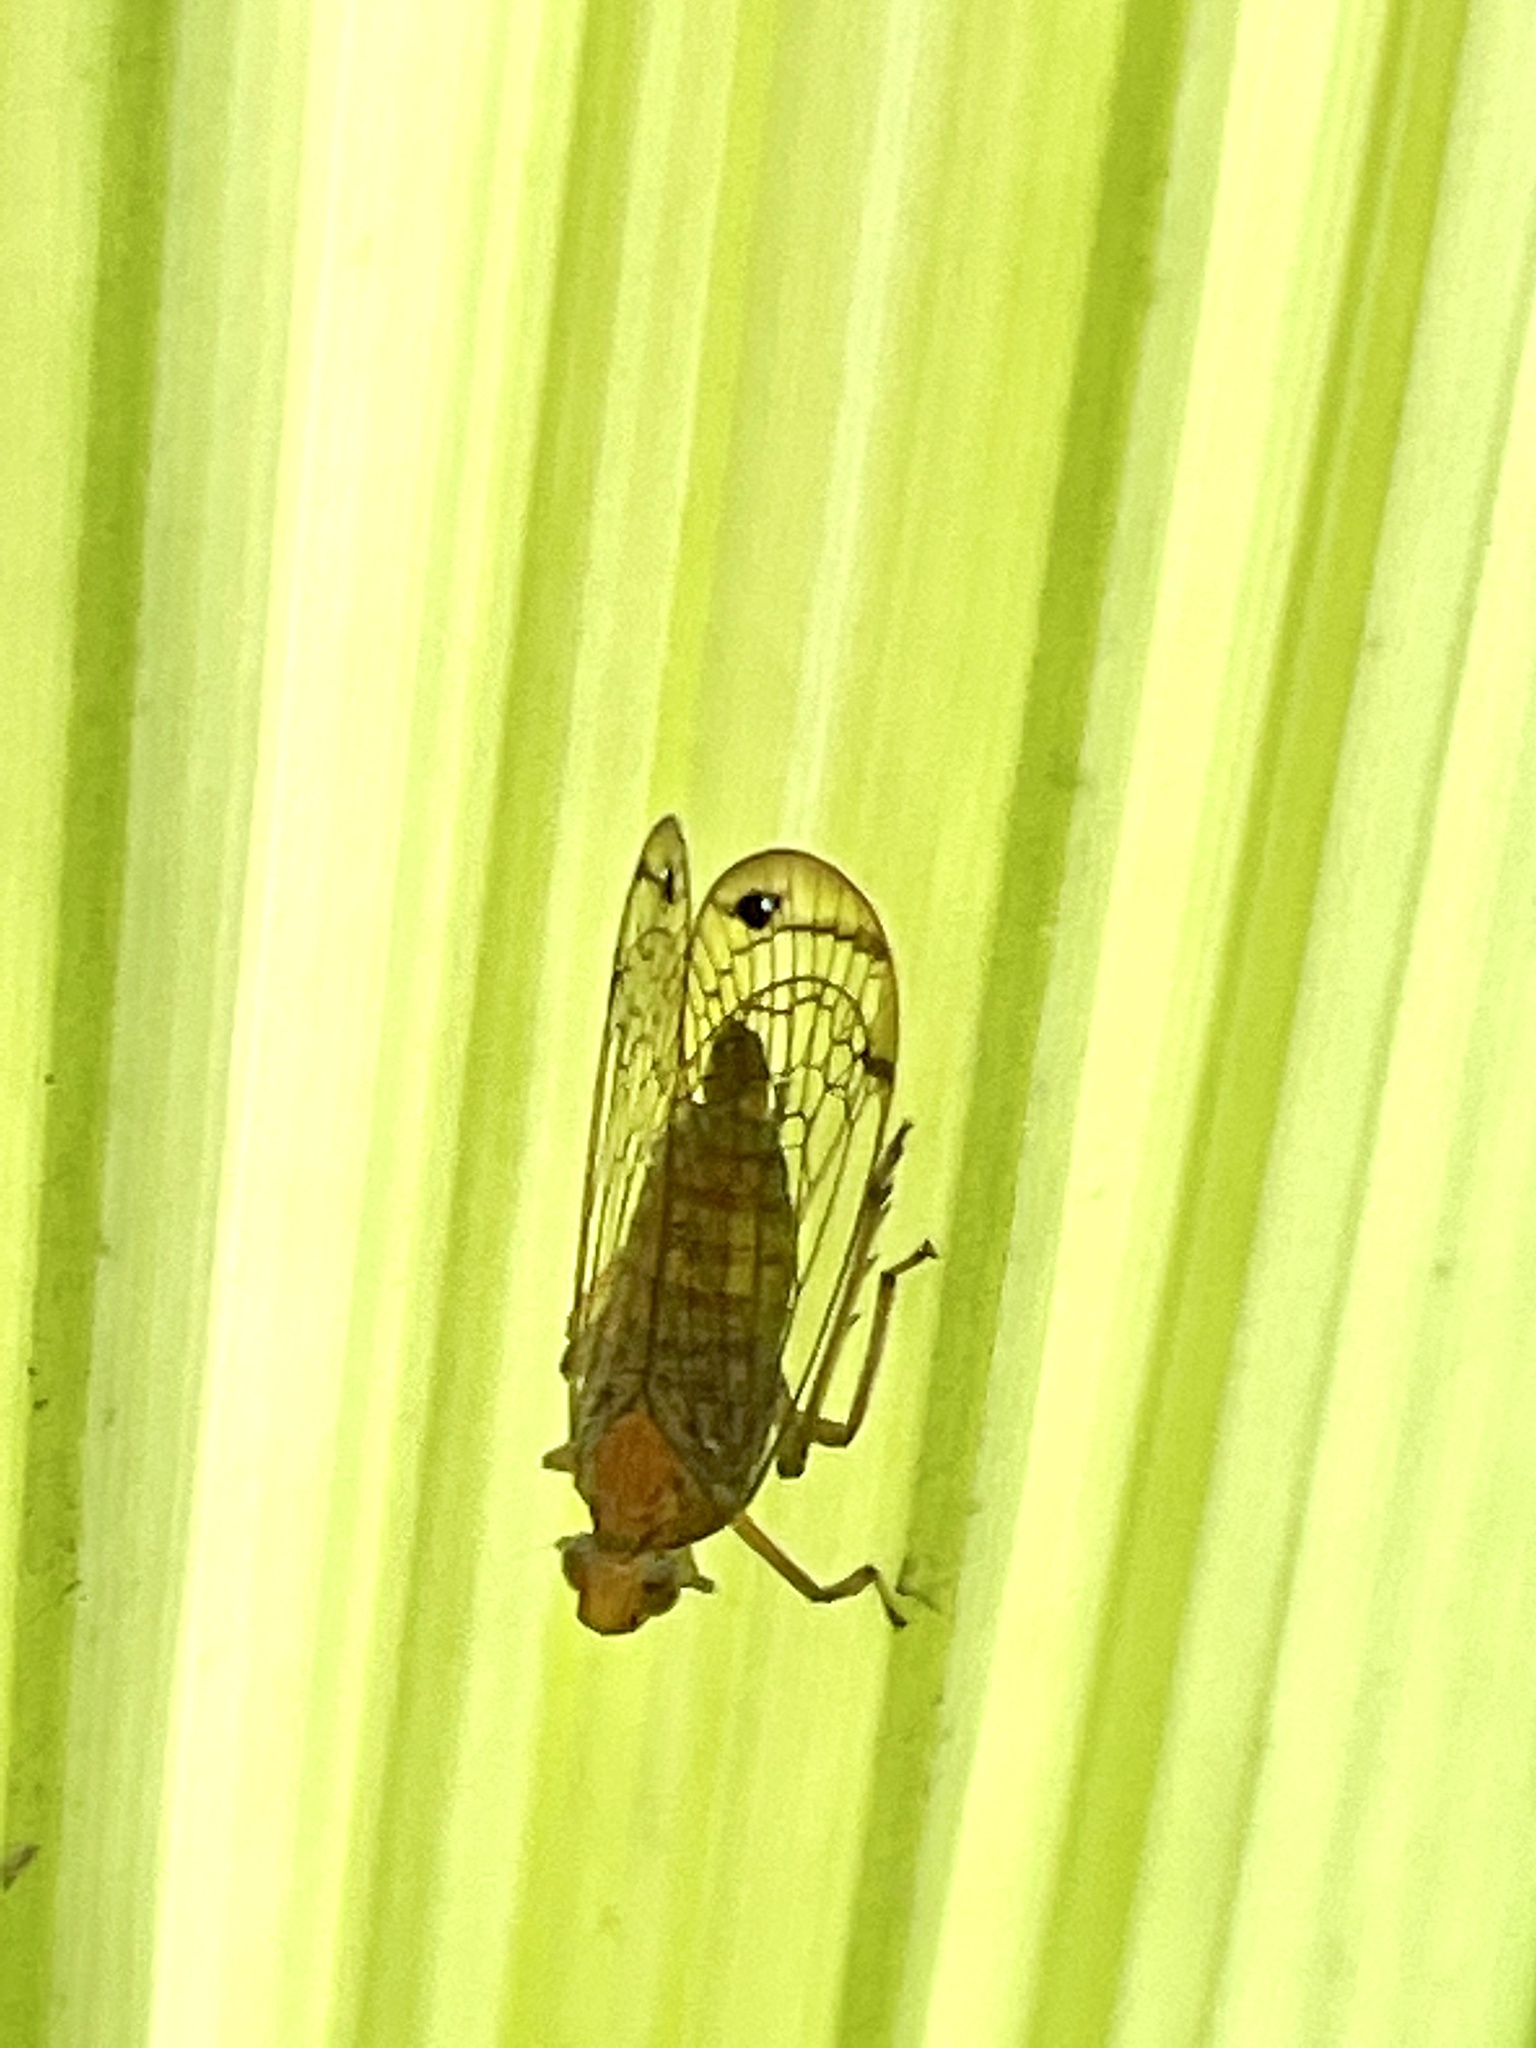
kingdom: Animalia
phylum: Arthropoda
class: Insecta
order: Hemiptera
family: Lophopidae
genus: Magia
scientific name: Magia subocellata
